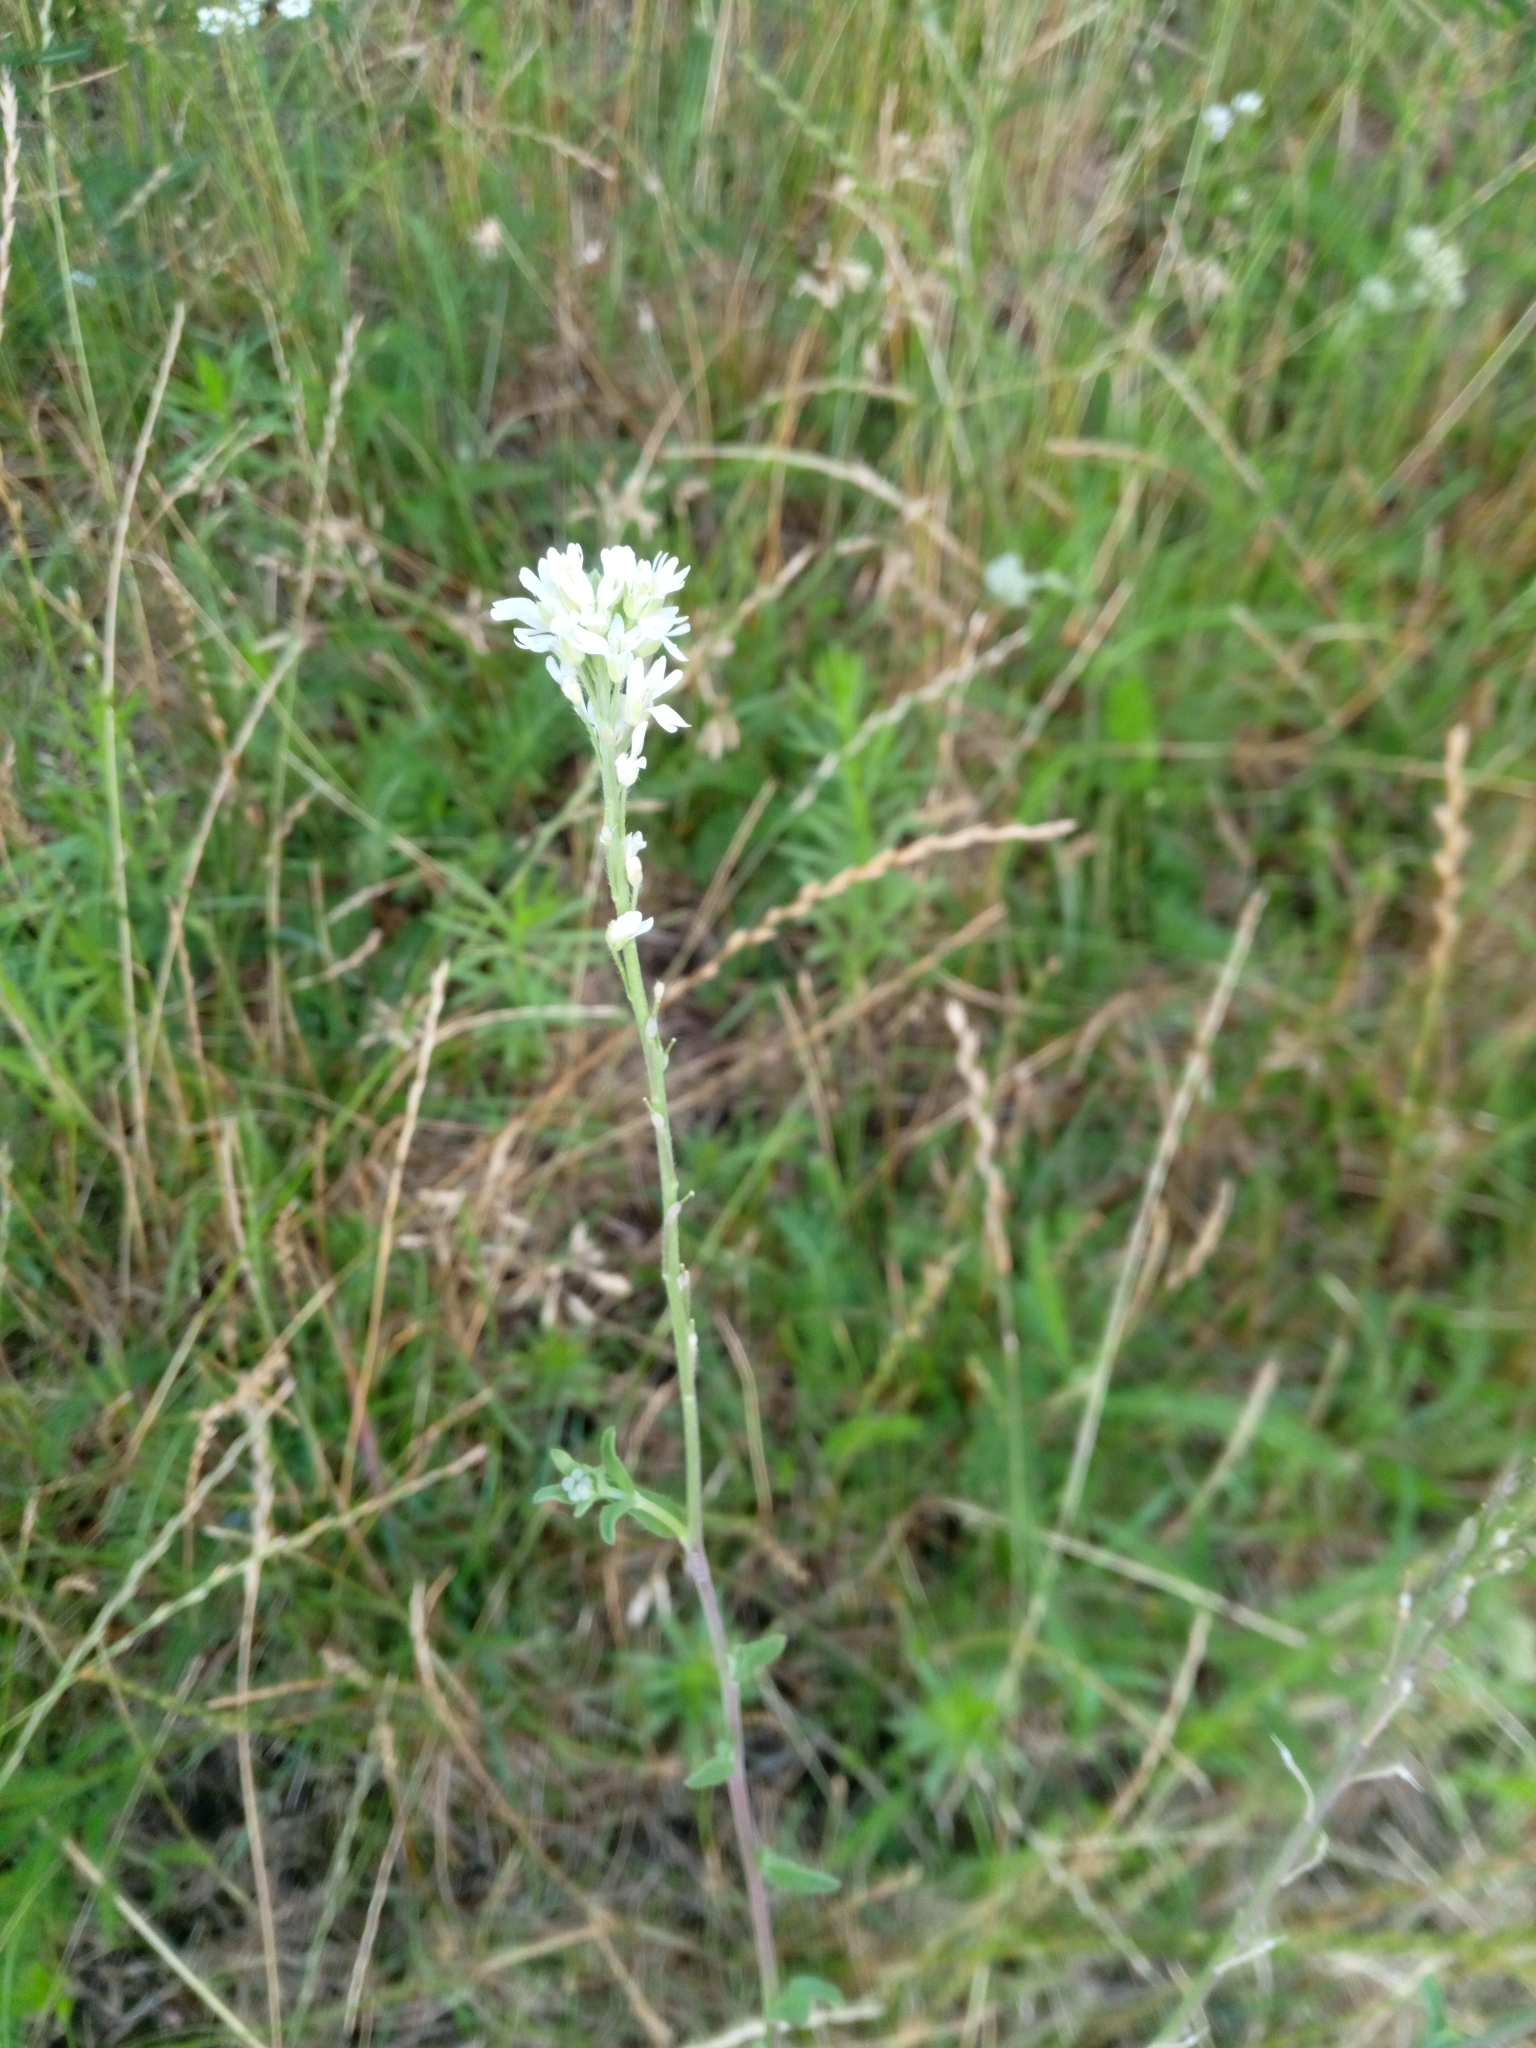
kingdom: Plantae
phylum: Tracheophyta
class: Magnoliopsida
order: Brassicales
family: Brassicaceae
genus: Berteroa
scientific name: Berteroa incana
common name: Hoary alison
